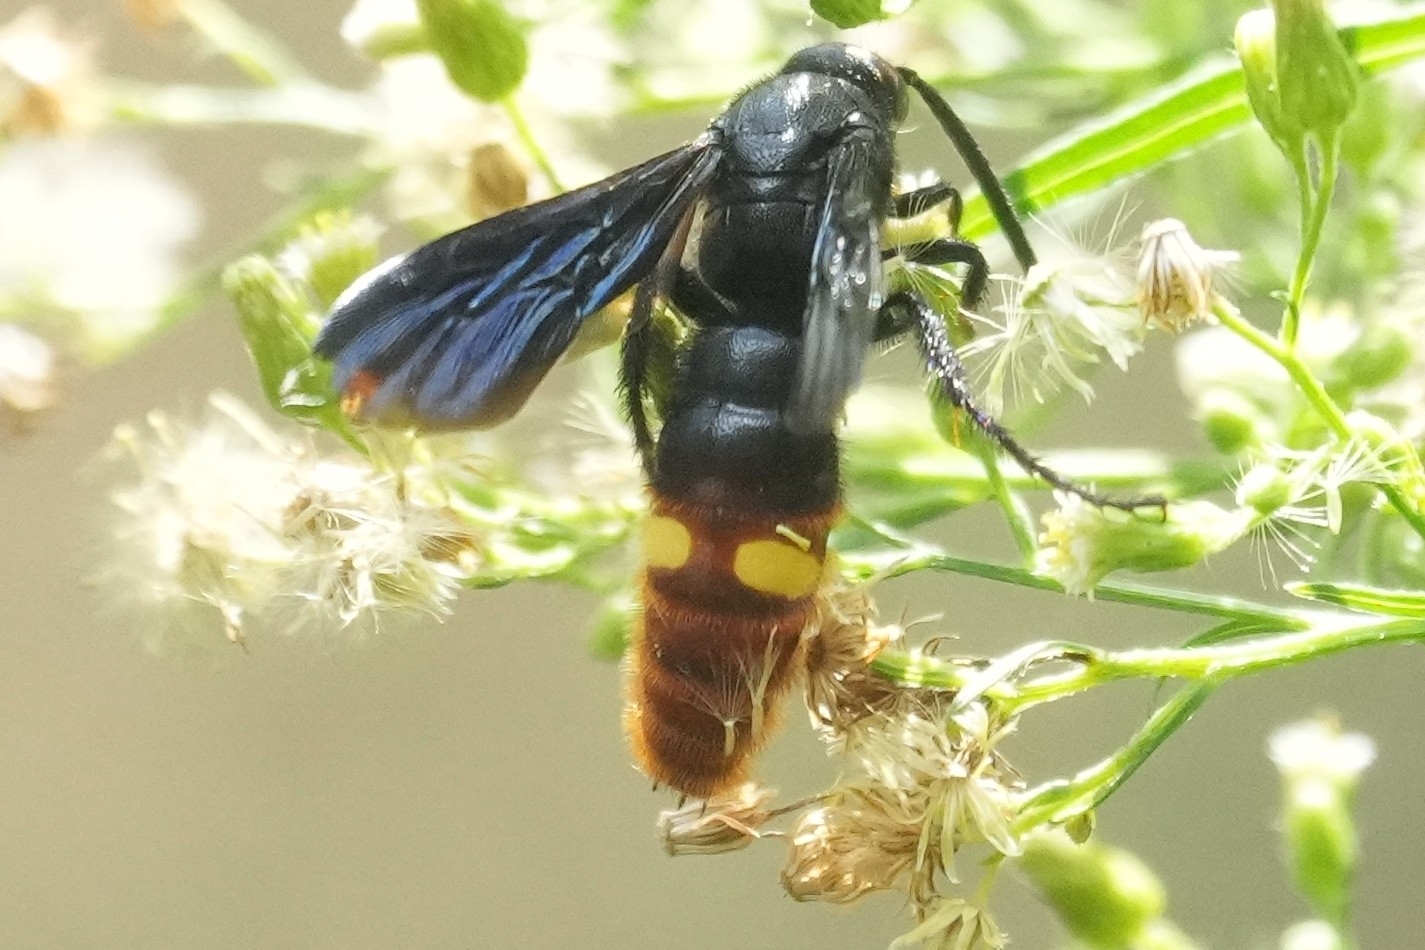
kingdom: Animalia
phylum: Arthropoda
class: Insecta
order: Hymenoptera
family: Scoliidae
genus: Scolia
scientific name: Scolia dubia
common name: Blue-winged scoliid wasp
